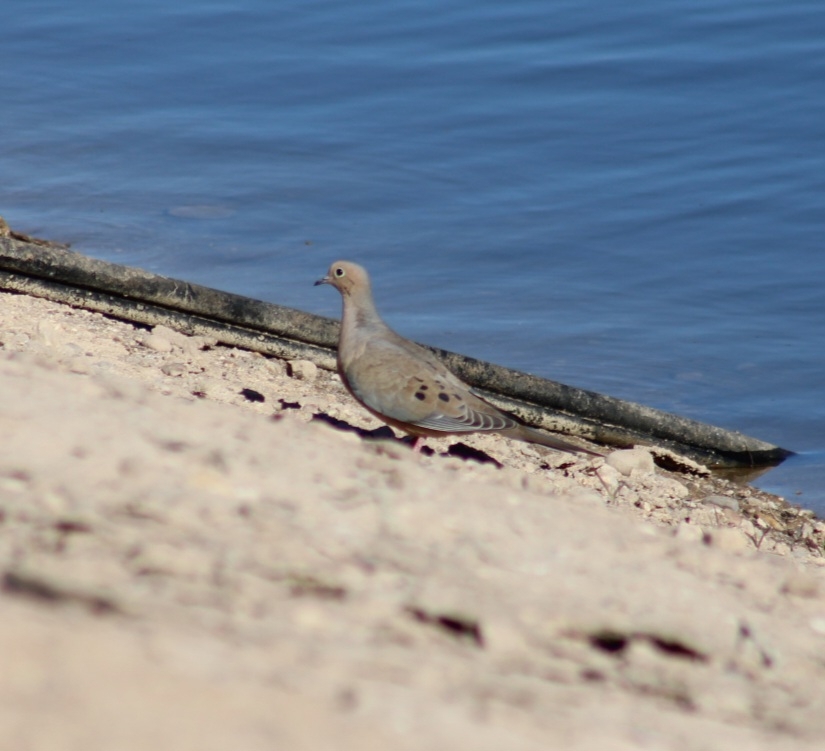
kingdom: Animalia
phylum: Chordata
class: Aves
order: Columbiformes
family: Columbidae
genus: Zenaida
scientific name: Zenaida macroura
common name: Mourning dove
